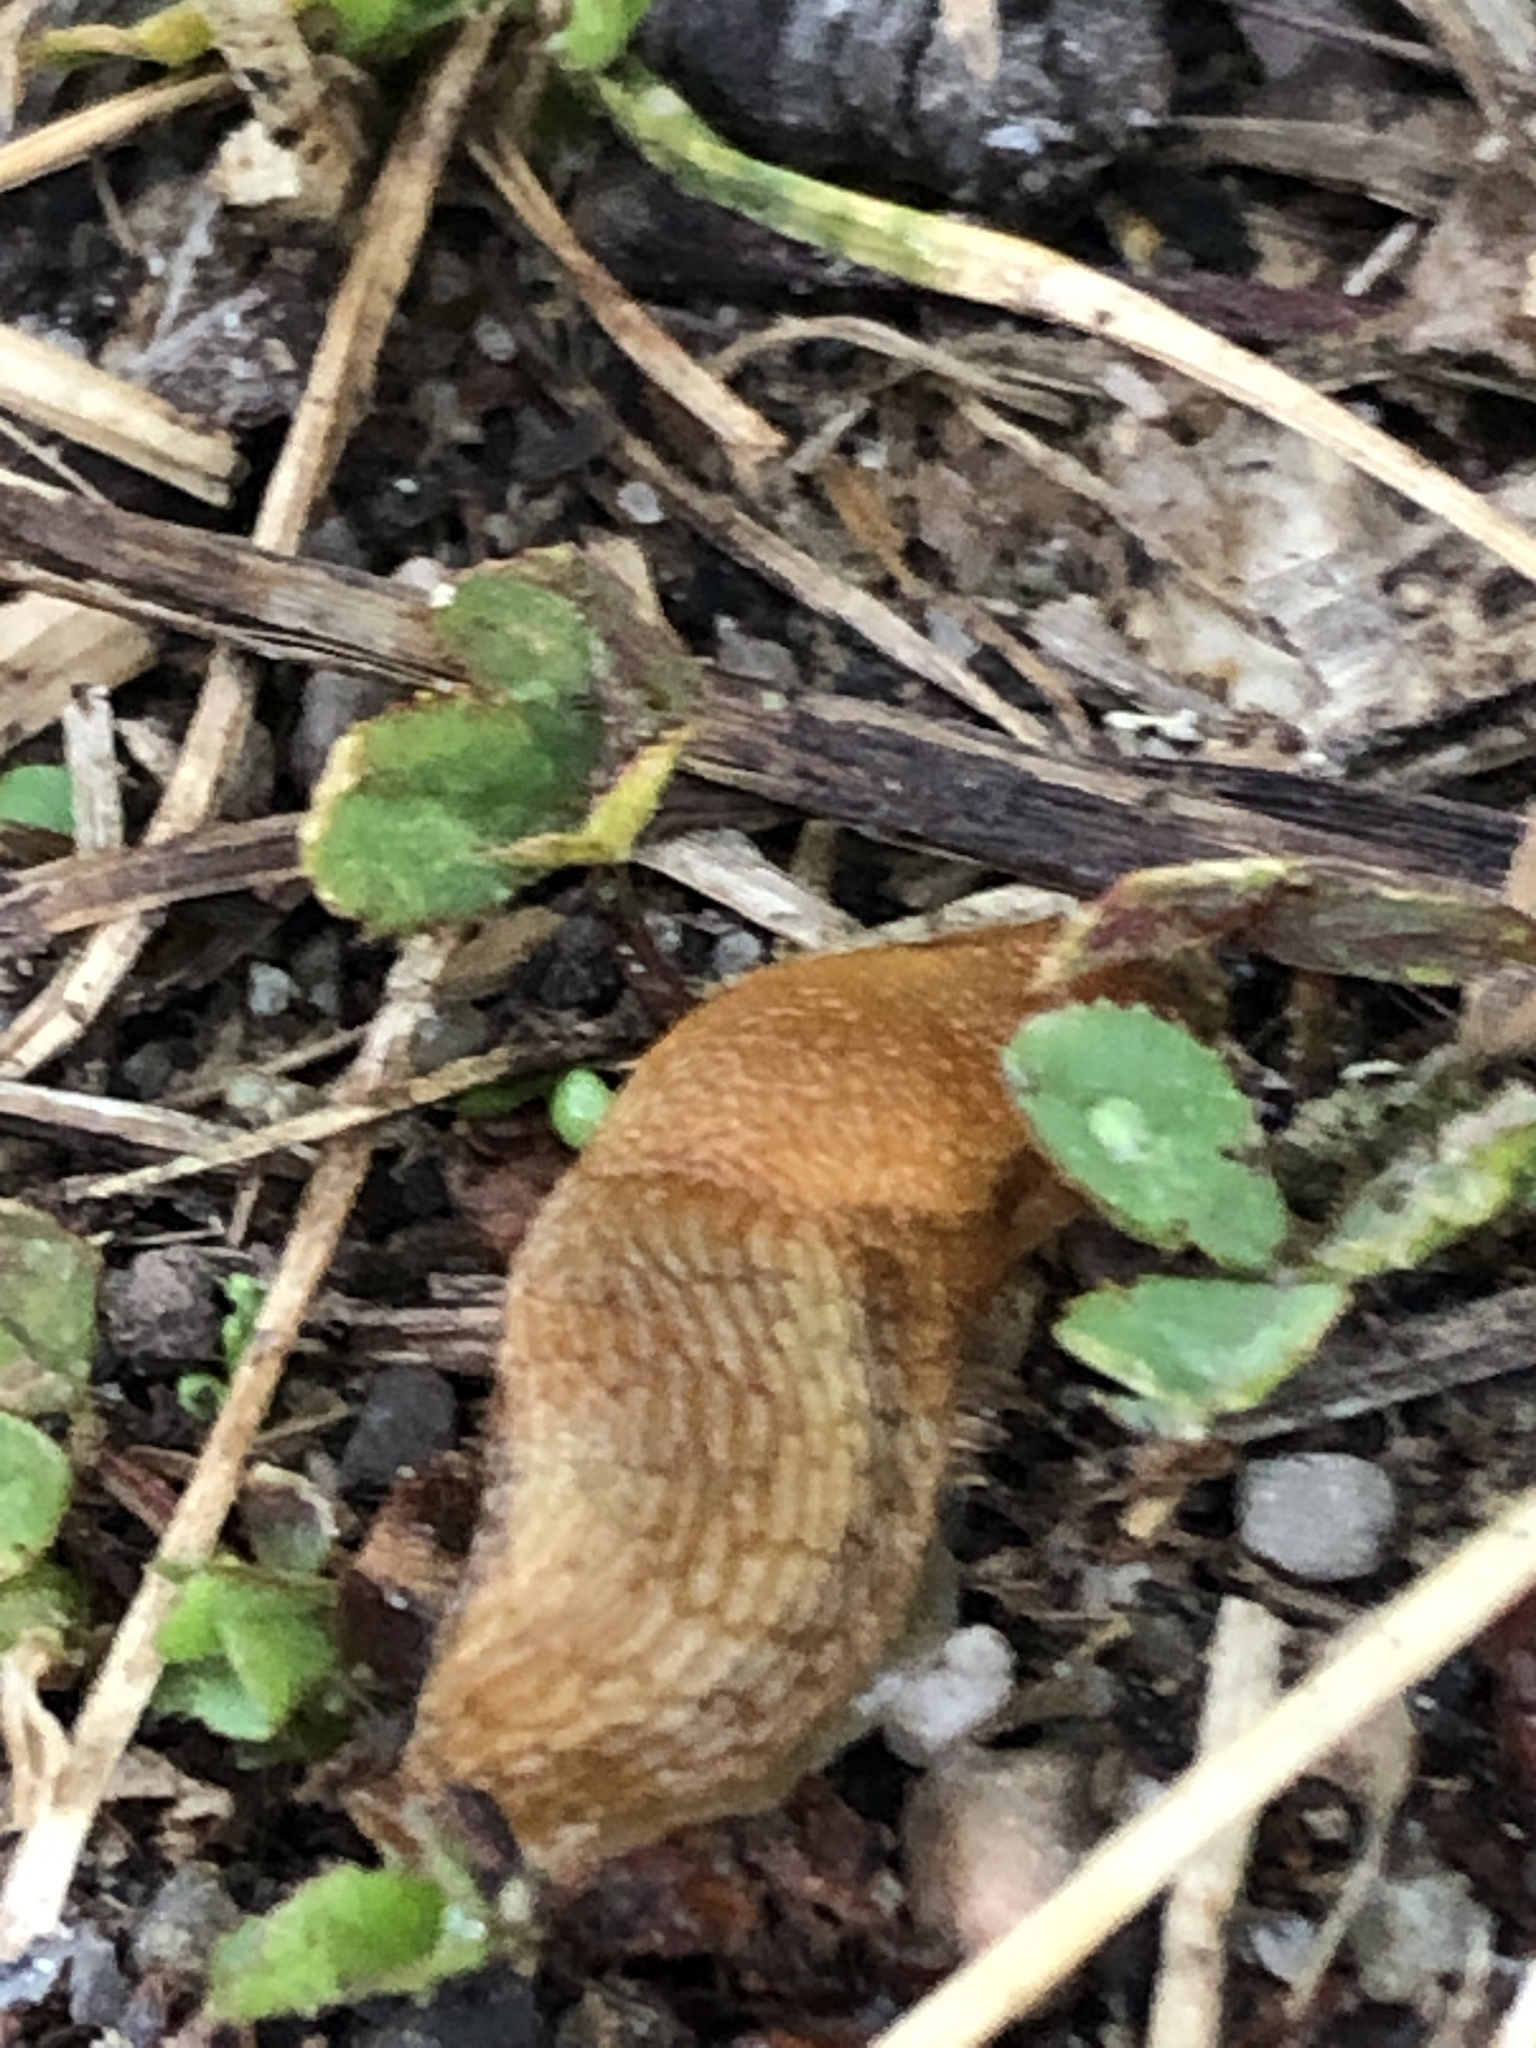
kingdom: Animalia
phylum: Mollusca
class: Gastropoda
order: Stylommatophora
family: Arionidae
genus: Mesarion
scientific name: Mesarion
